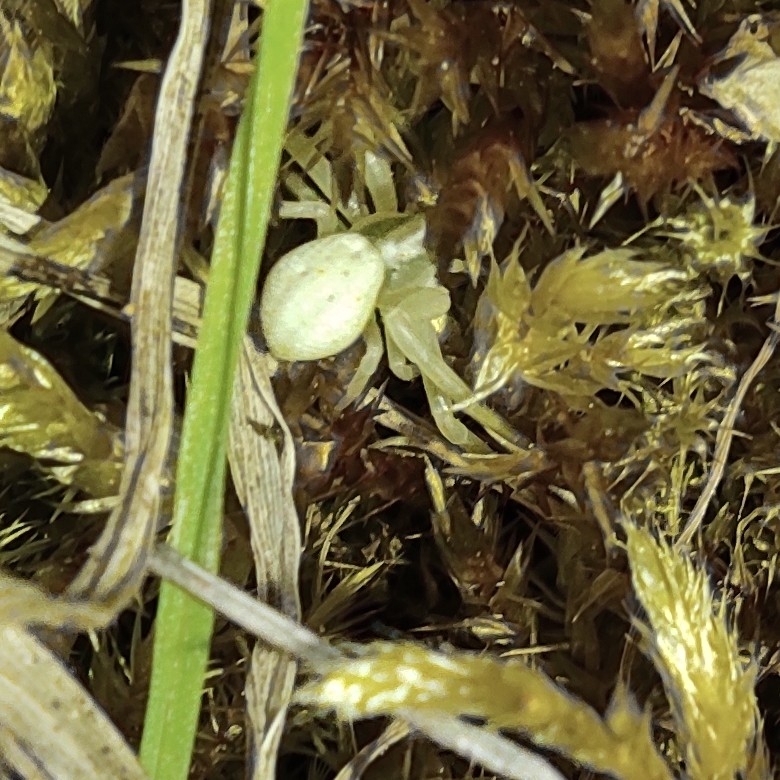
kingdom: Animalia
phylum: Arthropoda
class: Arachnida
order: Araneae
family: Thomisidae
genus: Misumena
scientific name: Misumena vatia
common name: Goldenrod crab spider
